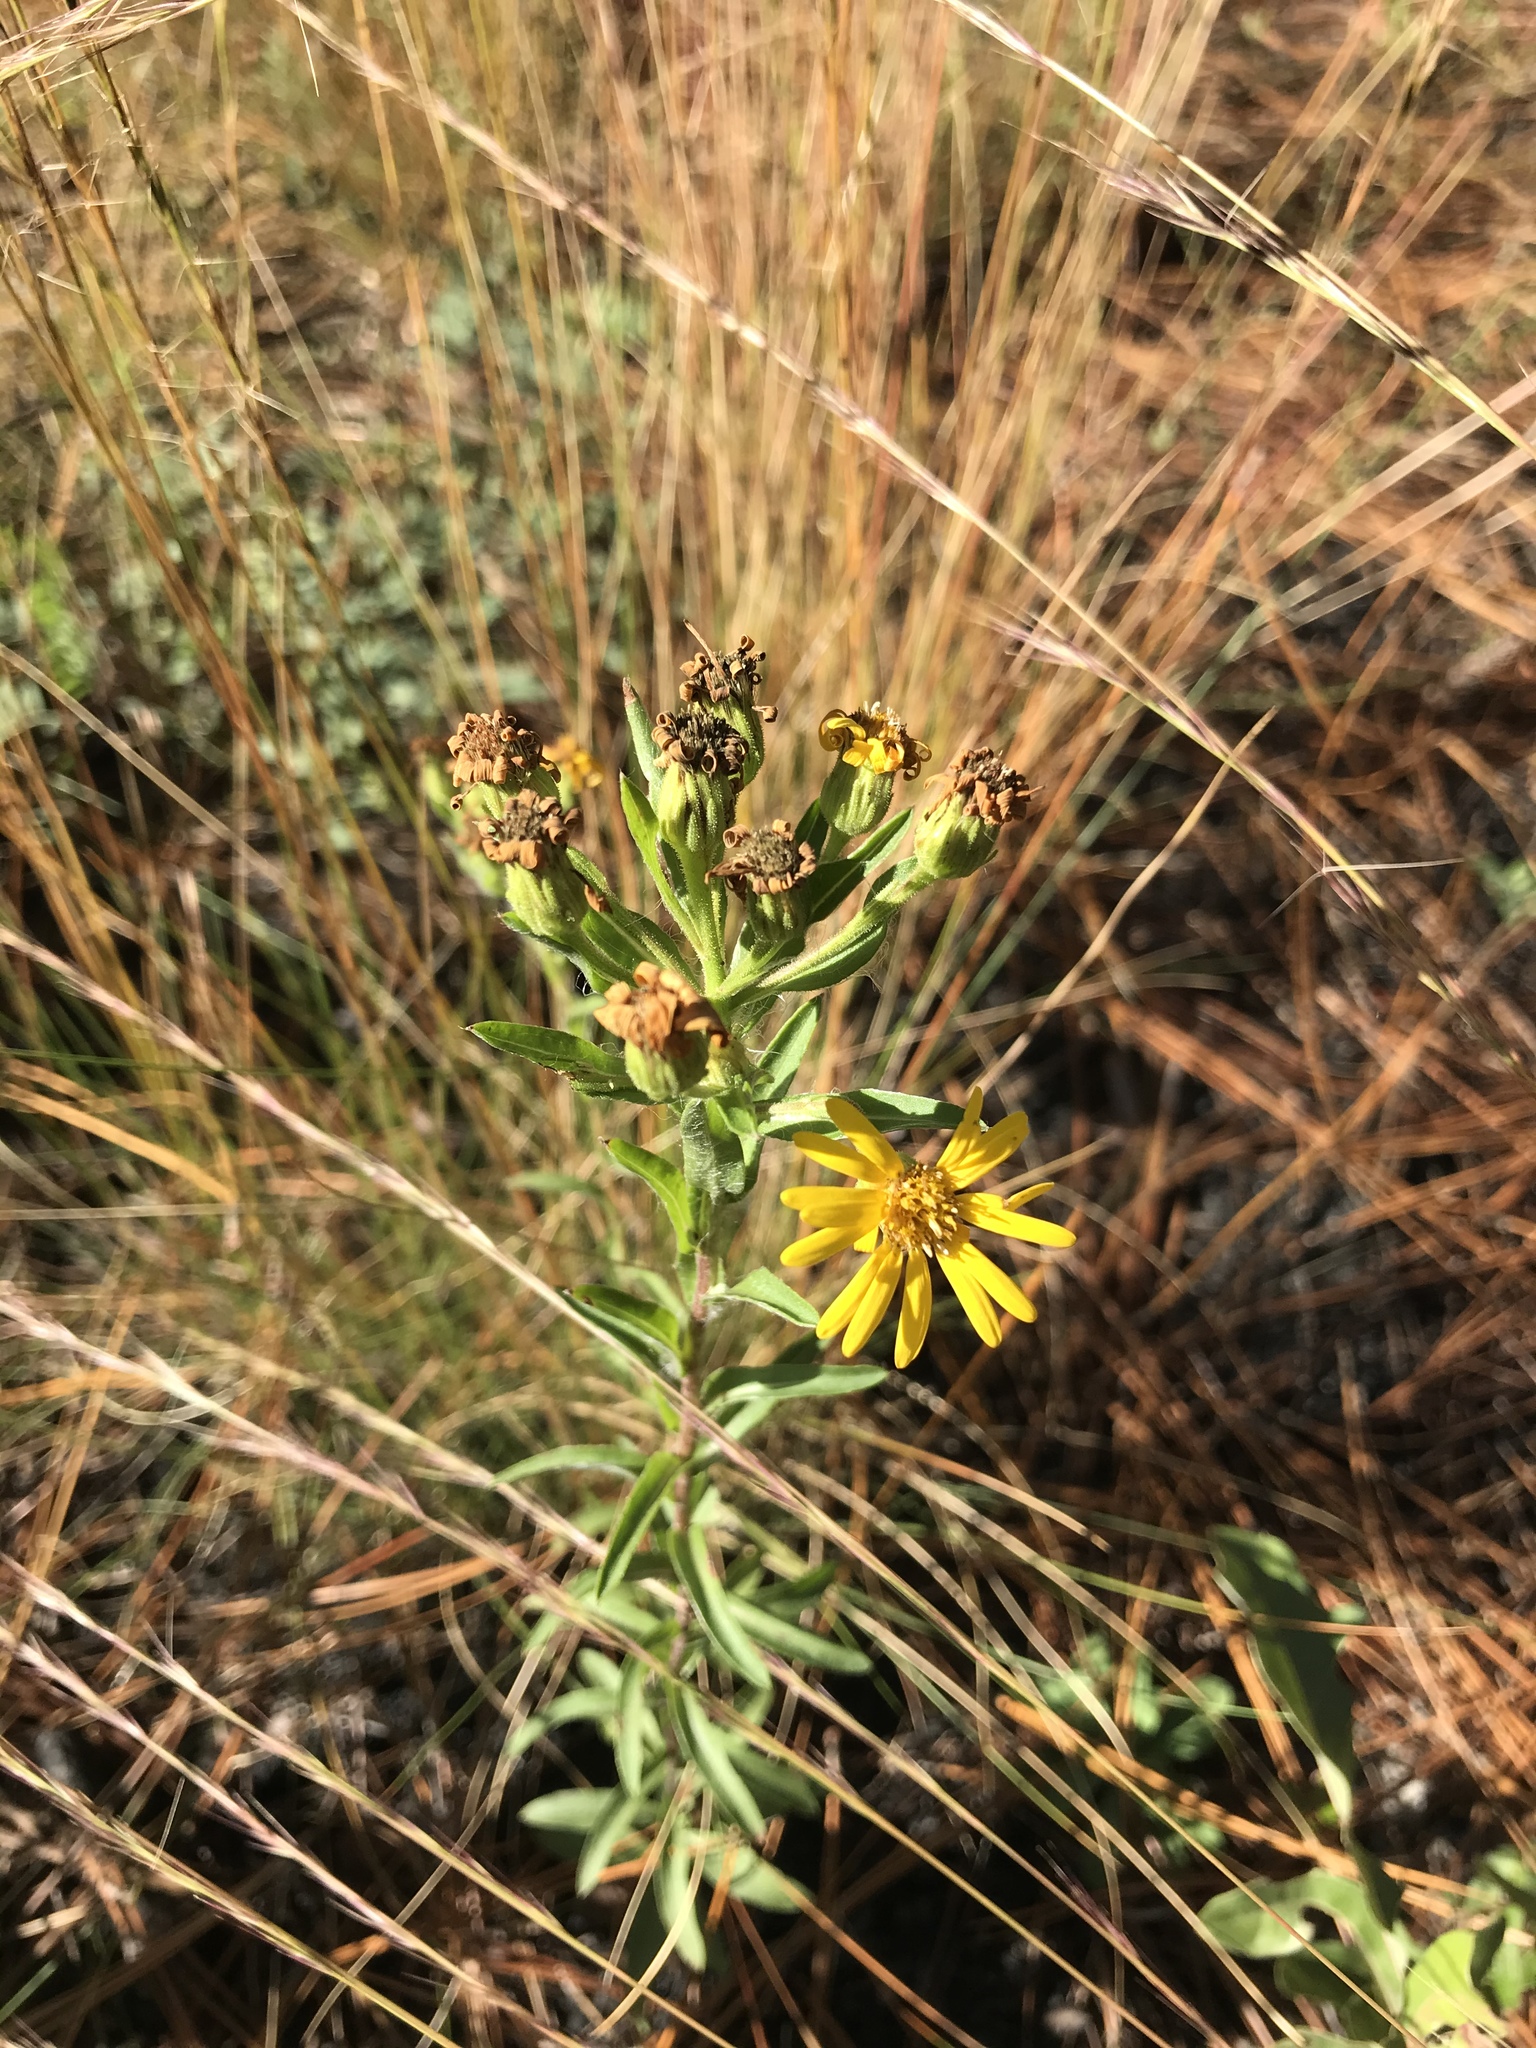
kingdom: Plantae
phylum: Tracheophyta
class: Magnoliopsida
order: Asterales
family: Asteraceae
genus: Chrysopsis
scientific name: Chrysopsis mariana
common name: Maryland golden-aster
